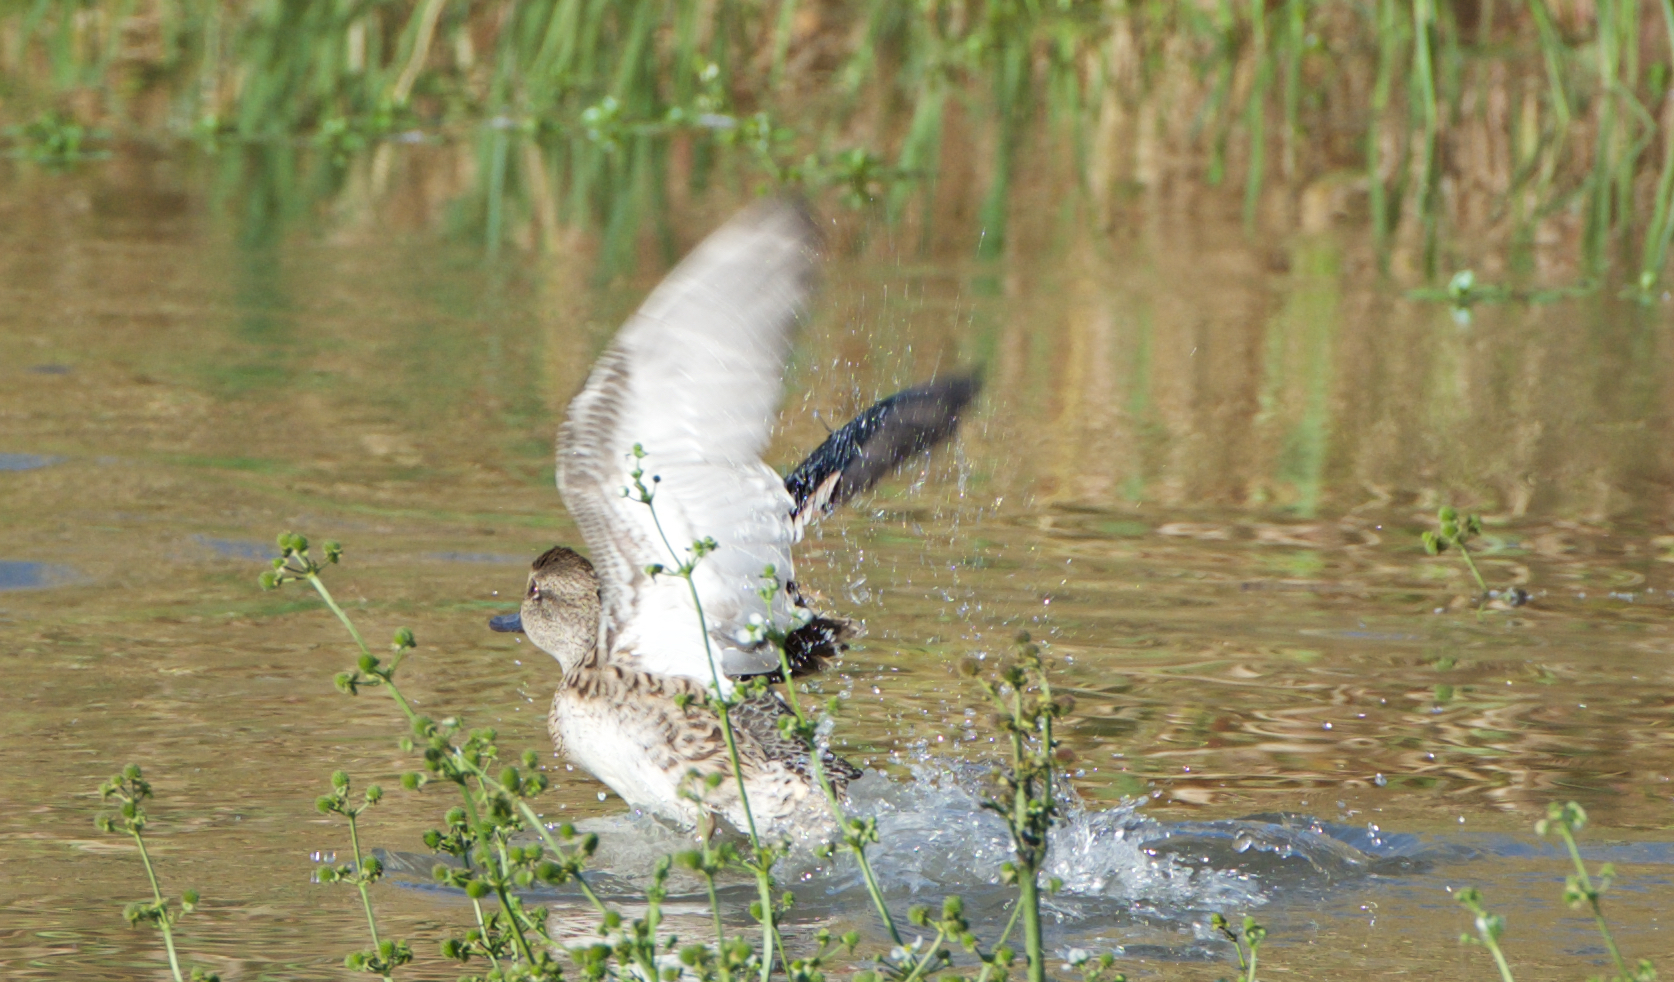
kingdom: Animalia
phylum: Chordata
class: Aves
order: Anseriformes
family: Anatidae
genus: Mareca
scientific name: Mareca strepera
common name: Gadwall
